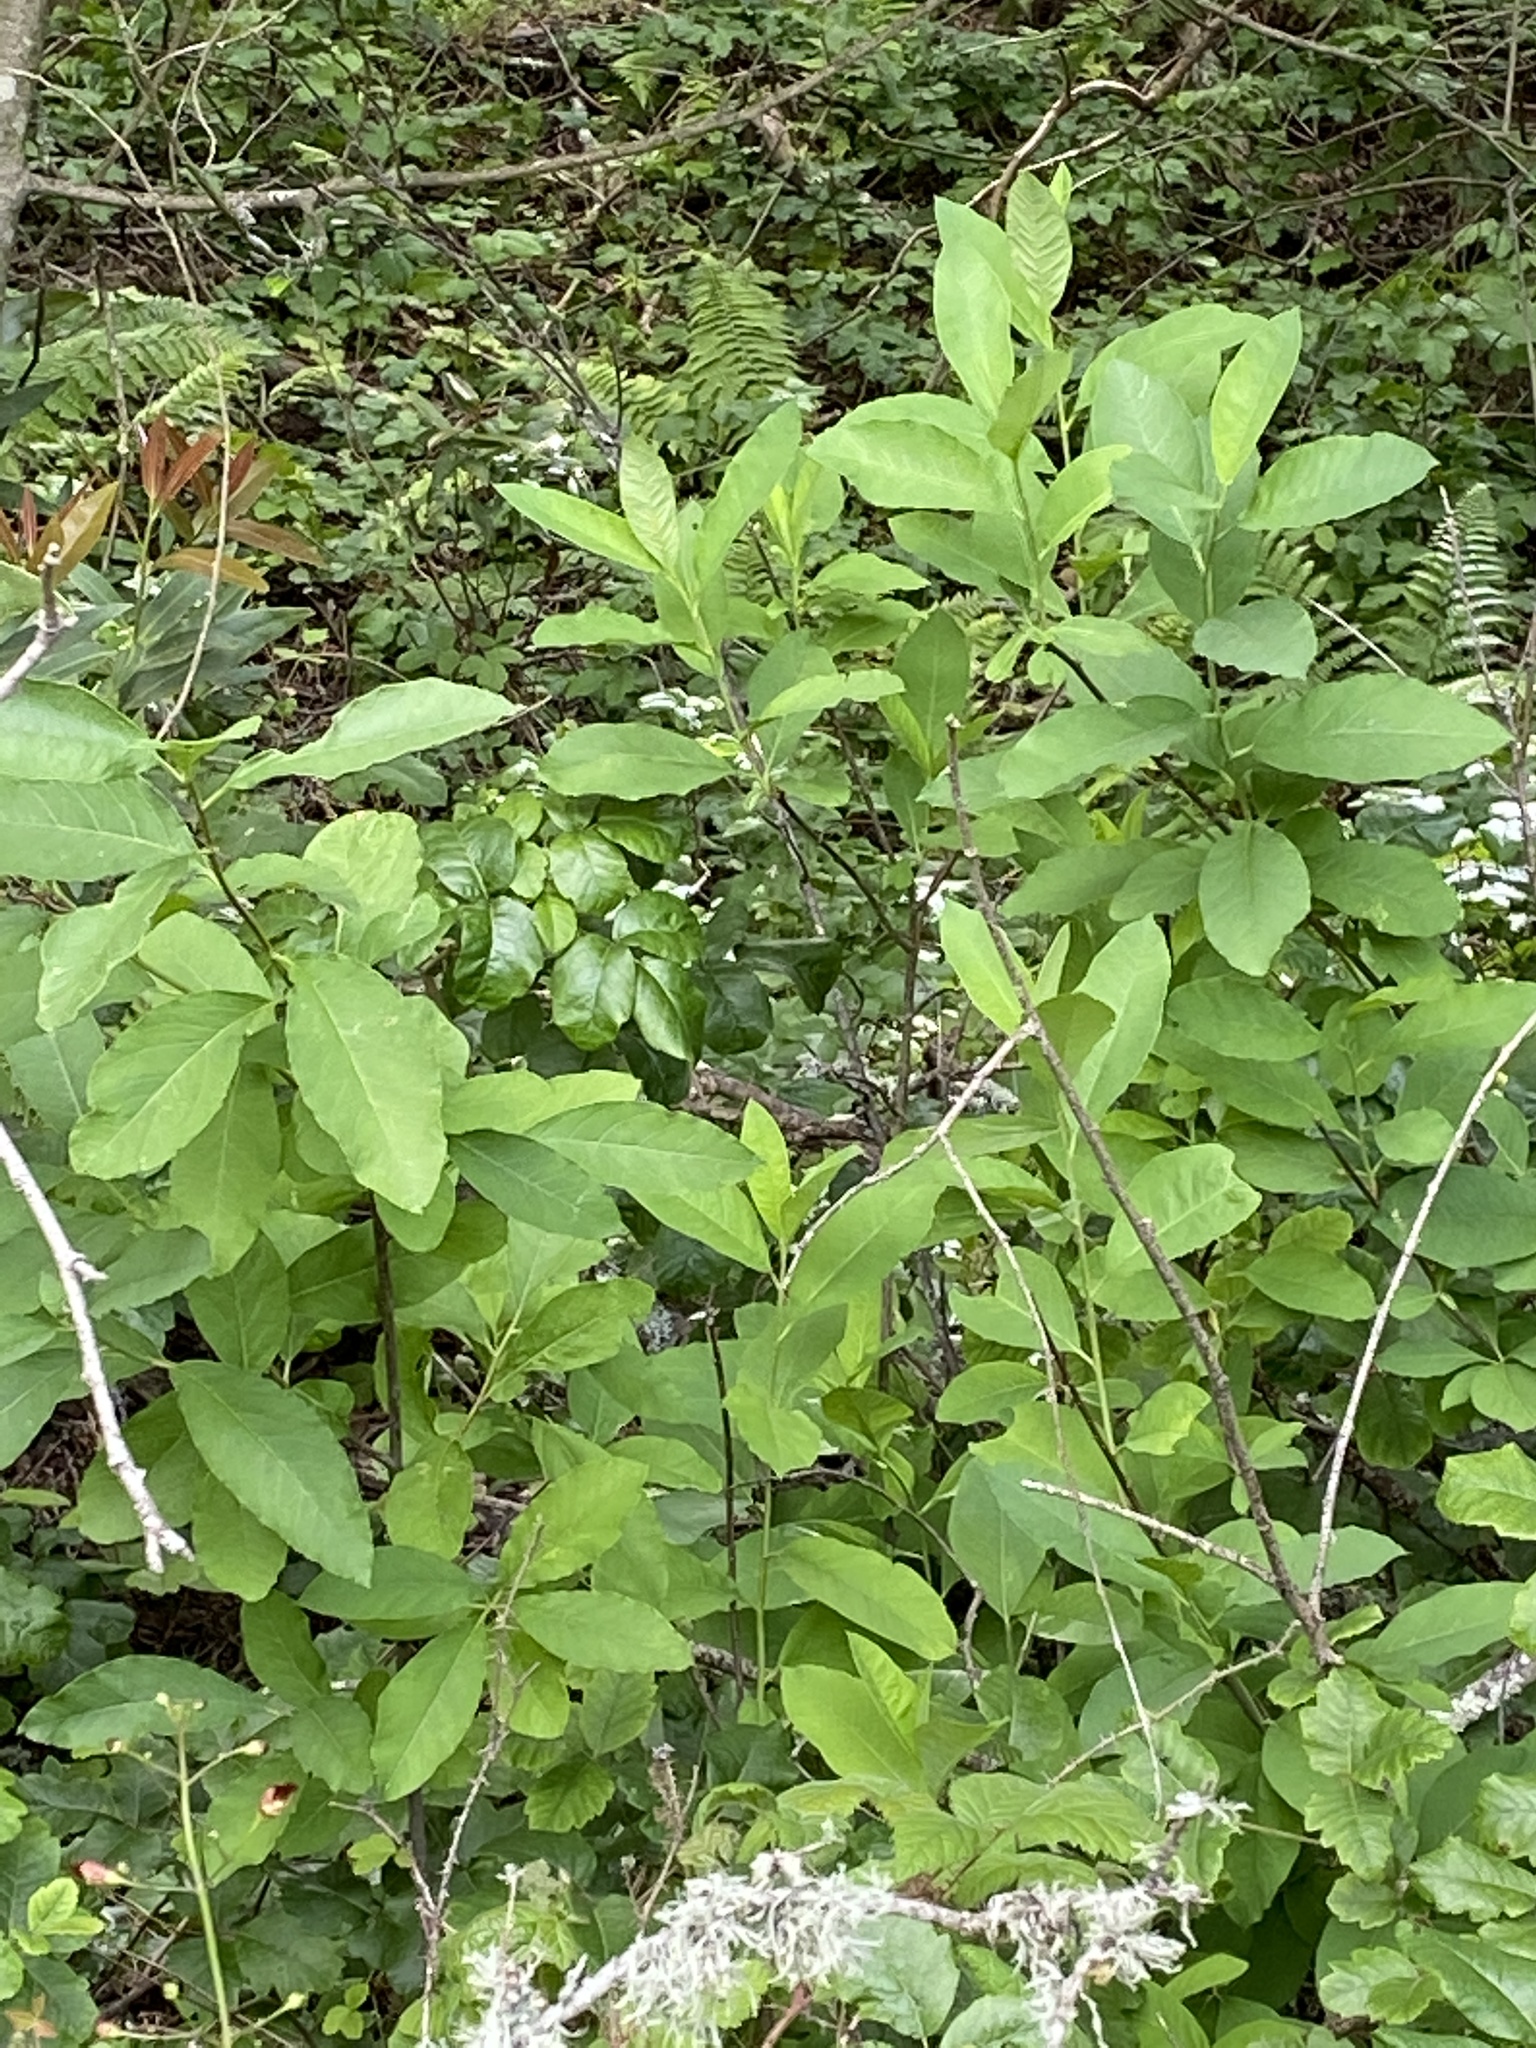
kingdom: Plantae
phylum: Tracheophyta
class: Magnoliopsida
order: Rosales
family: Rosaceae
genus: Oemleria
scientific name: Oemleria cerasiformis
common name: Osoberry
